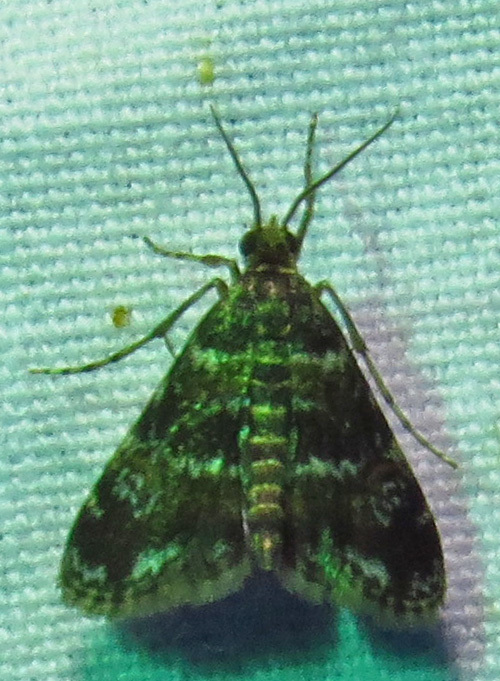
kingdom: Animalia
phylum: Arthropoda
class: Insecta
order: Lepidoptera
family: Crambidae
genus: Elophila
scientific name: Elophila obliteralis
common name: Waterlily leafcutter moth
